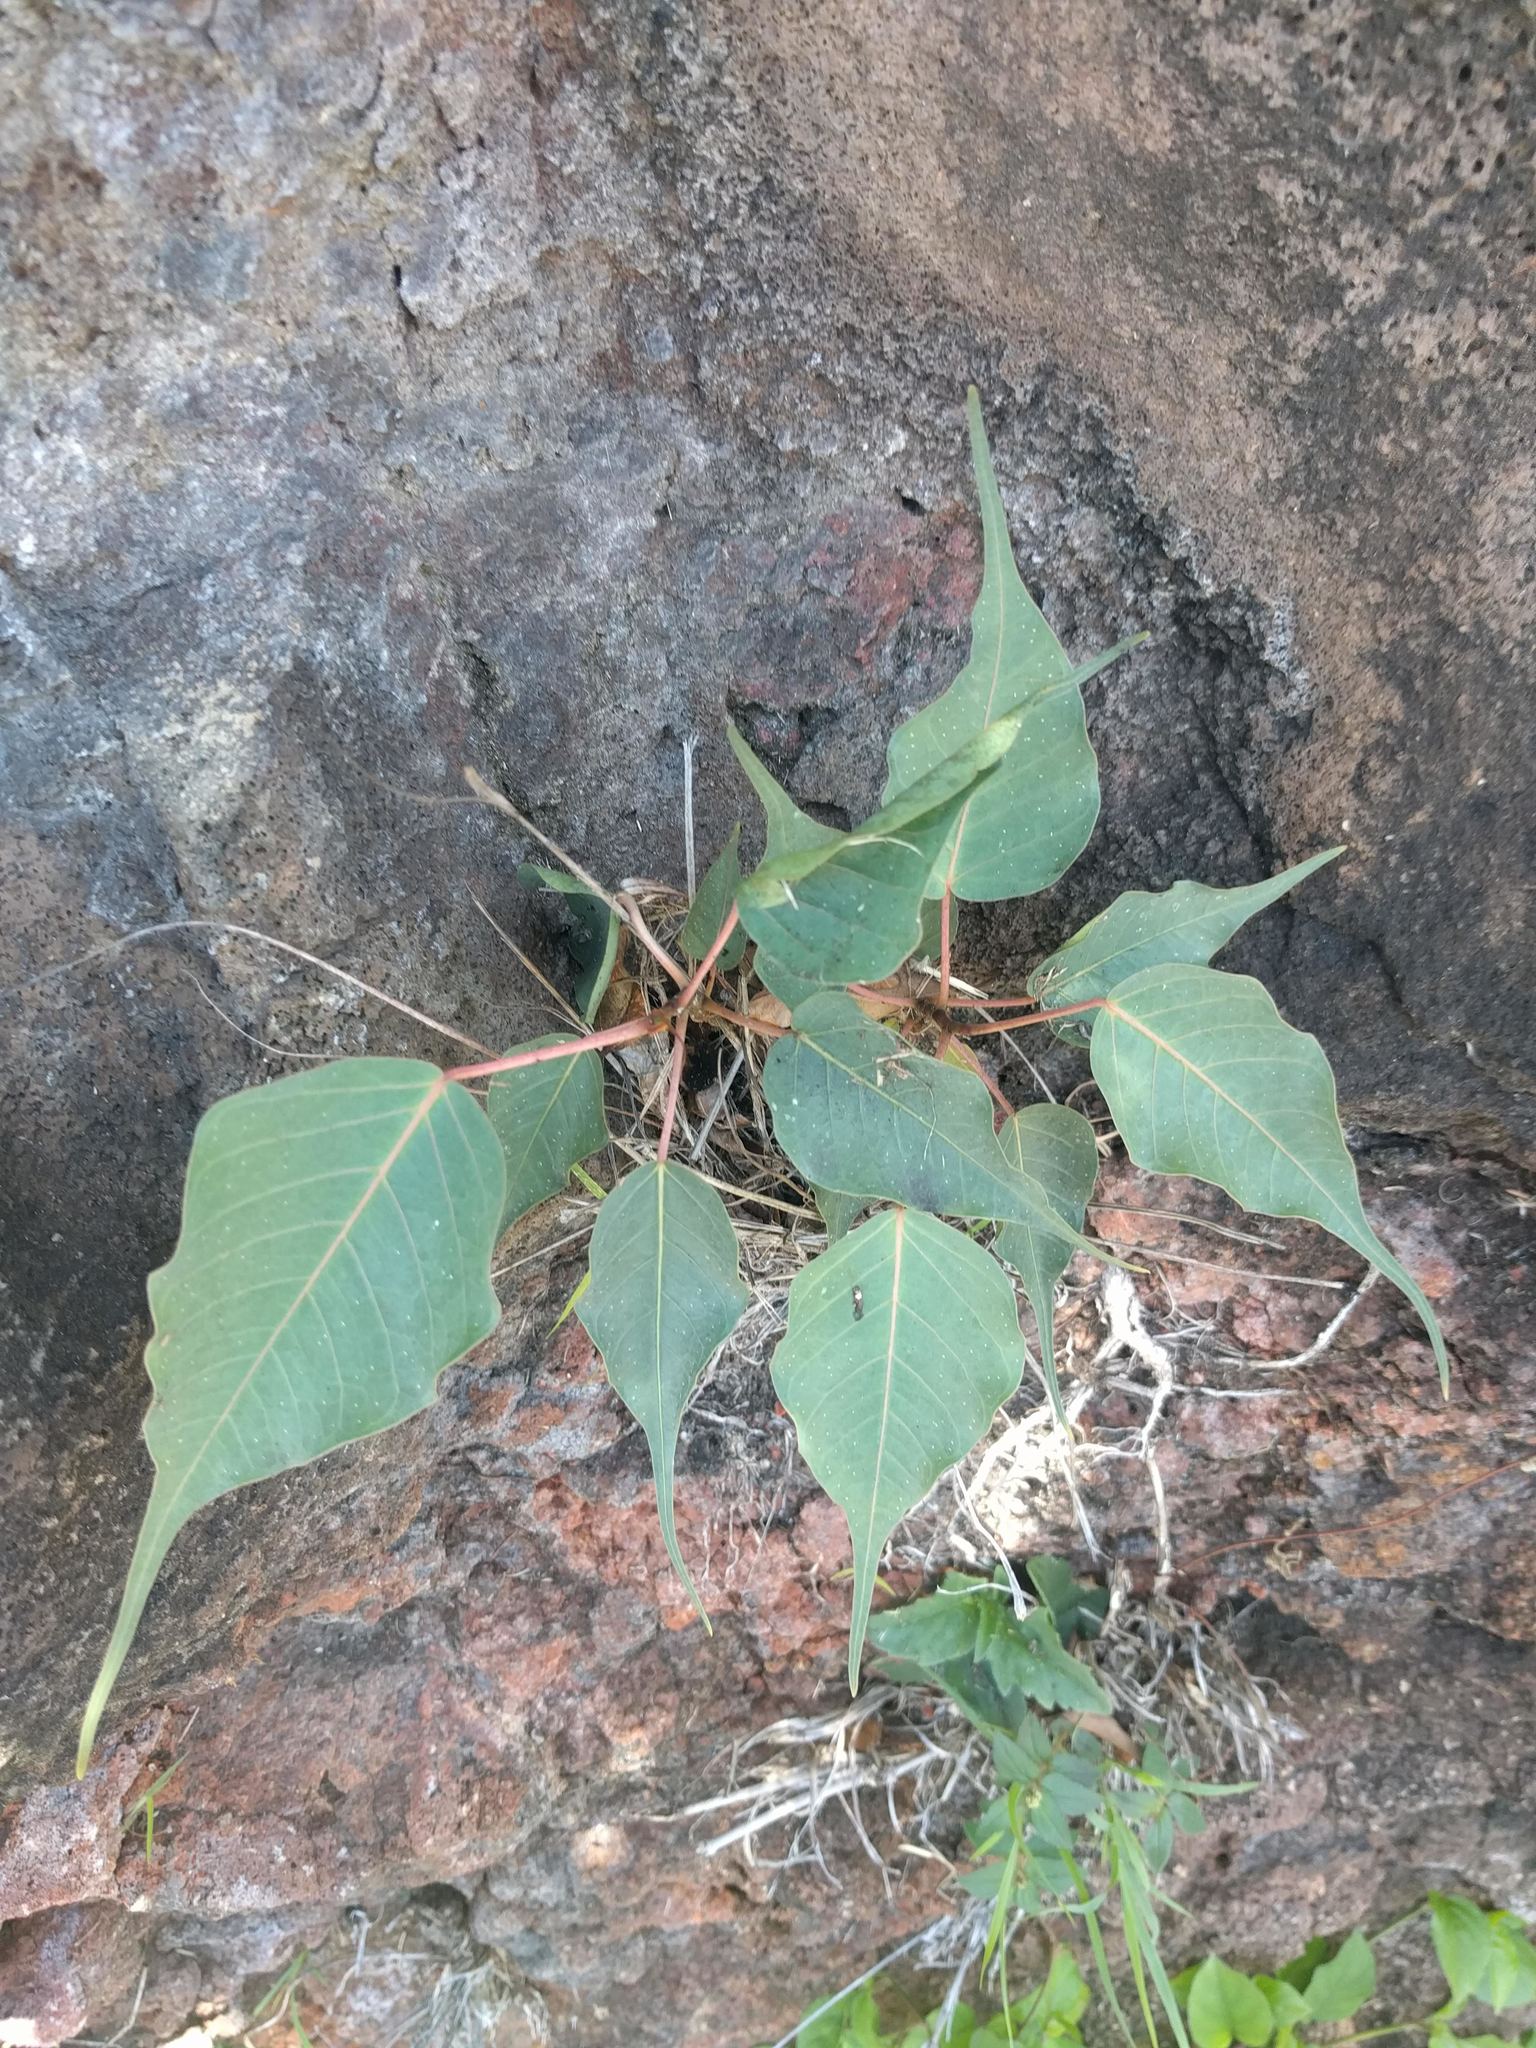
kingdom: Plantae
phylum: Tracheophyta
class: Magnoliopsida
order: Rosales
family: Moraceae
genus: Ficus
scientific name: Ficus religiosa
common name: Bodhi tree
